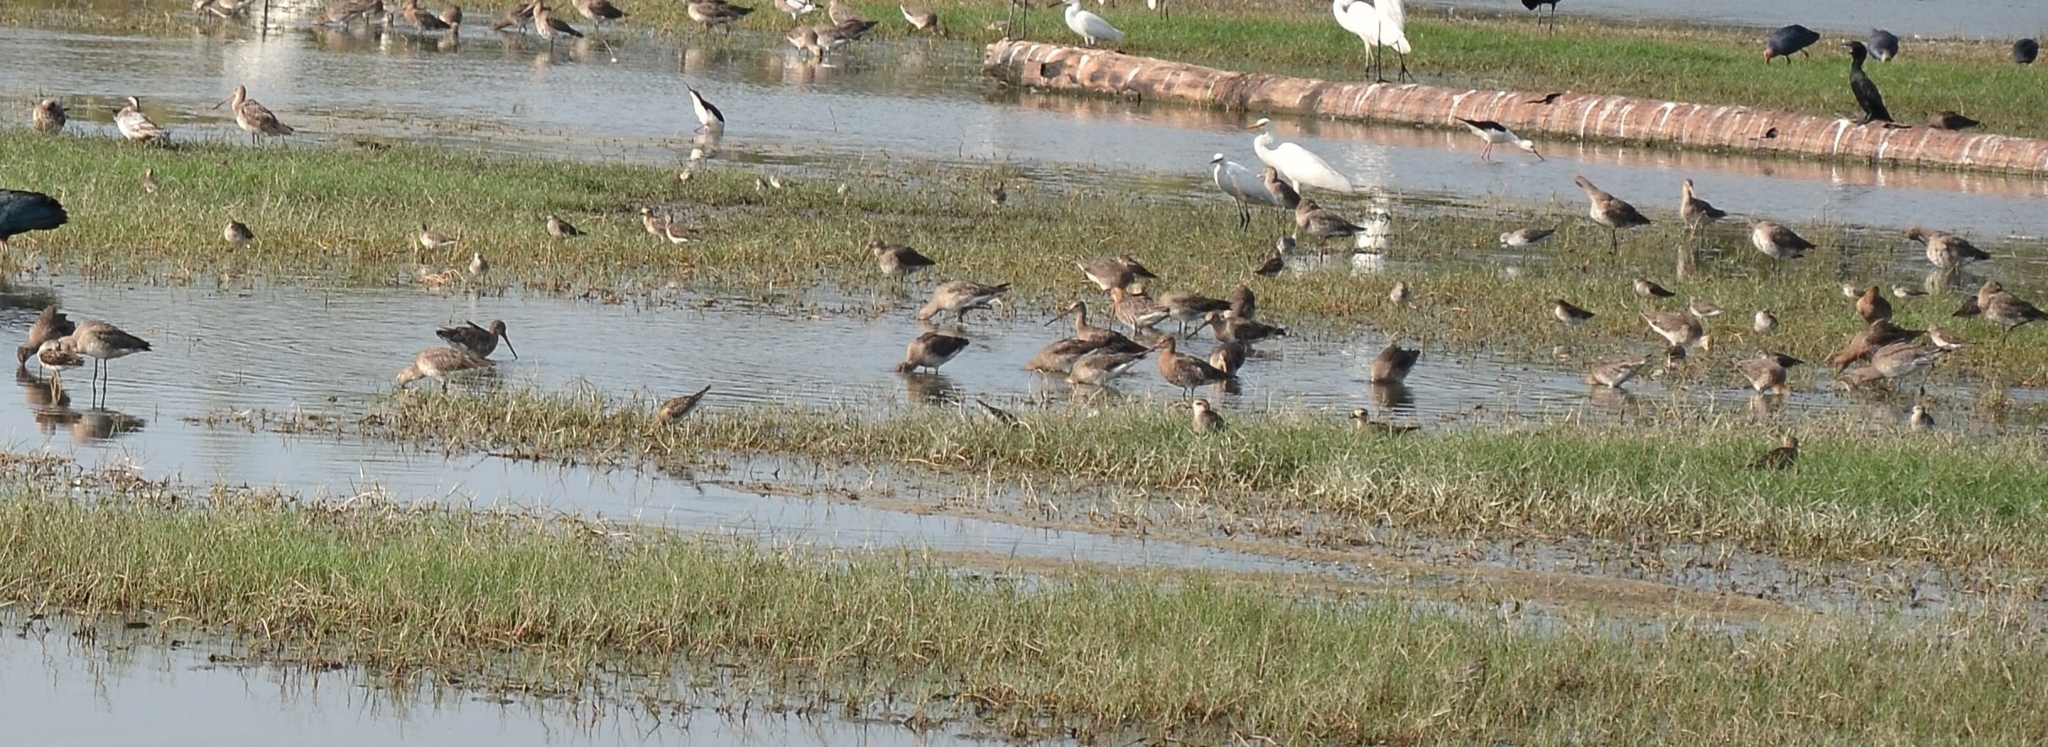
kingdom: Animalia
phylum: Chordata
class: Aves
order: Charadriiformes
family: Scolopacidae
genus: Limosa
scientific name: Limosa limosa
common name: Black-tailed godwit
